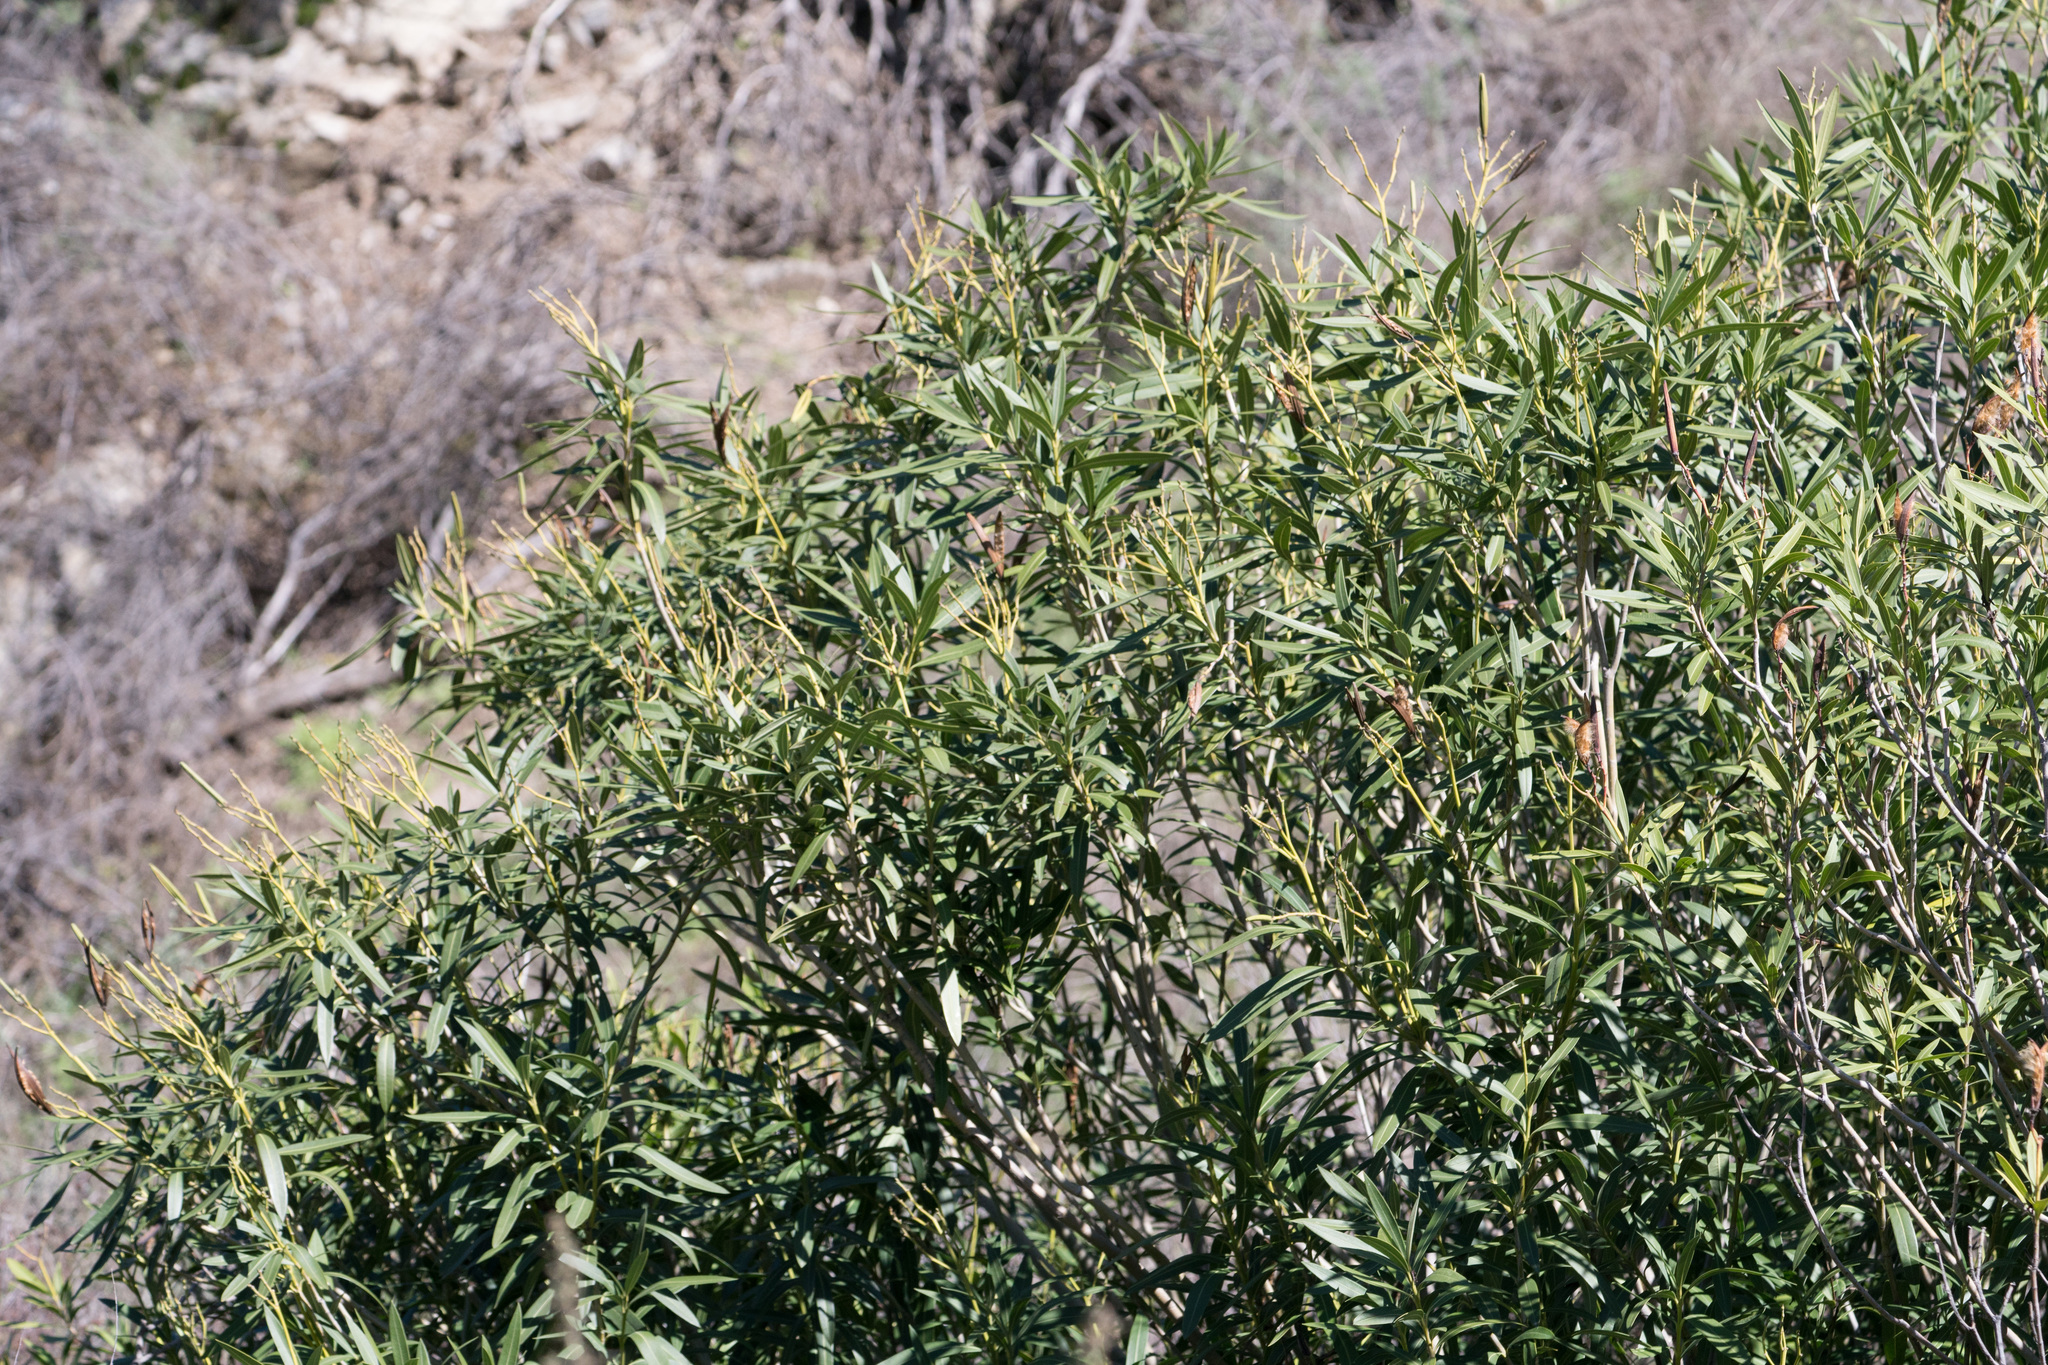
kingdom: Plantae
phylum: Tracheophyta
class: Magnoliopsida
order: Gentianales
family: Apocynaceae
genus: Nerium
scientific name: Nerium oleander
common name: Oleander
